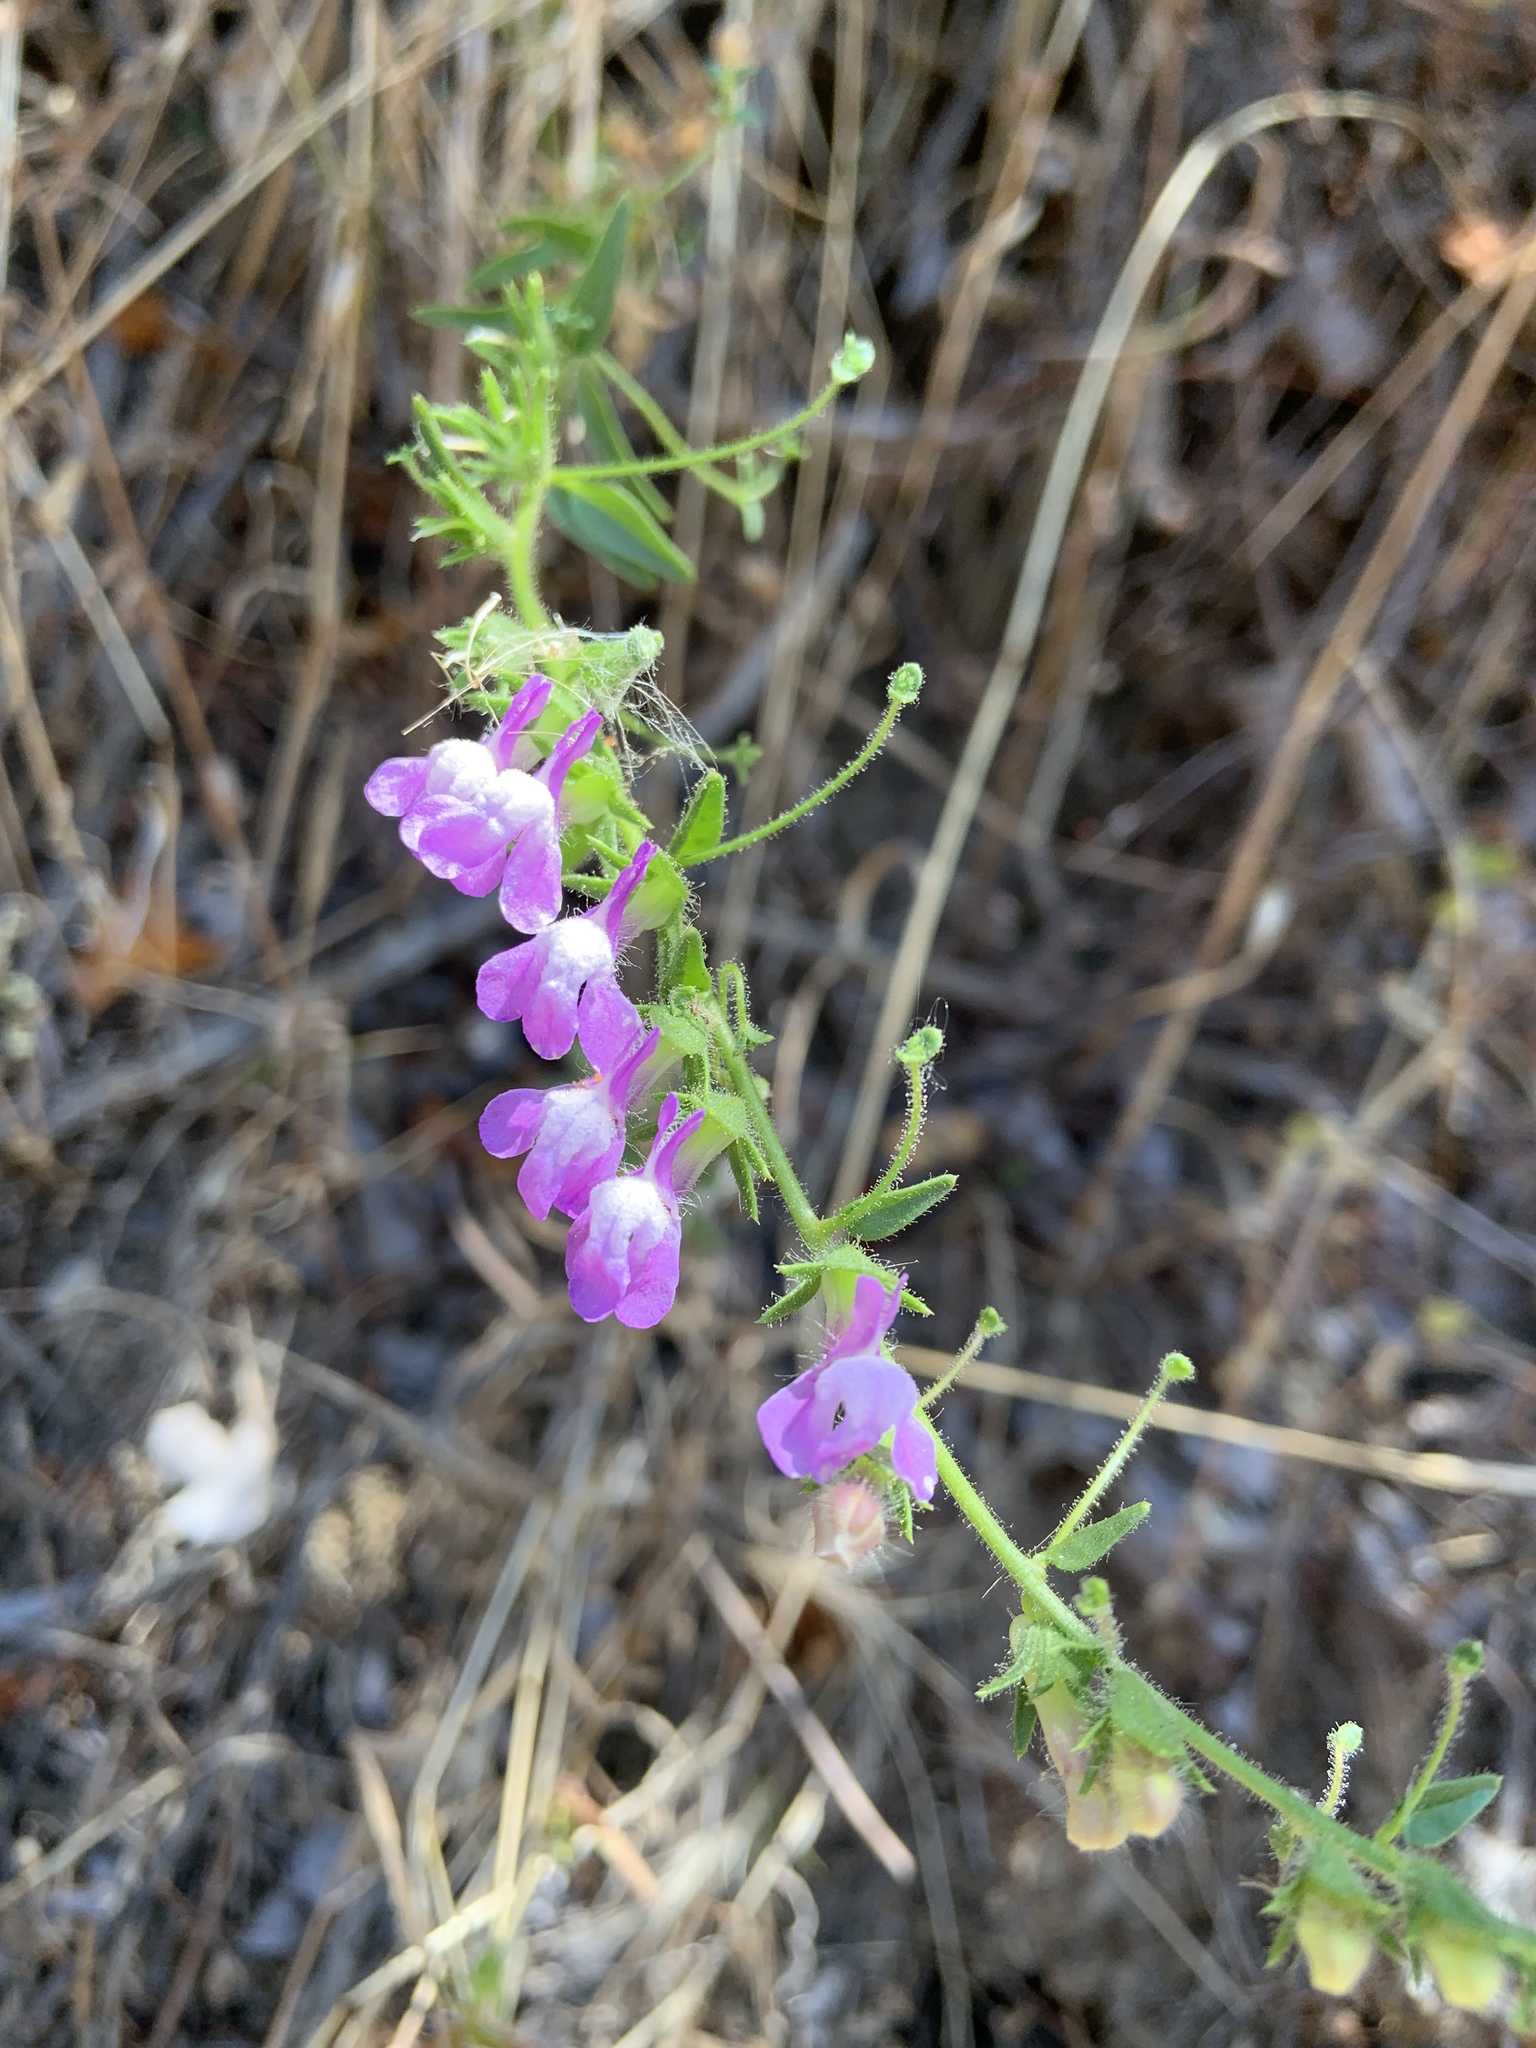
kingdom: Plantae
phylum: Tracheophyta
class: Magnoliopsida
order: Lamiales
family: Plantaginaceae
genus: Sairocarpus
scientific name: Sairocarpus vexillocalyculatus
